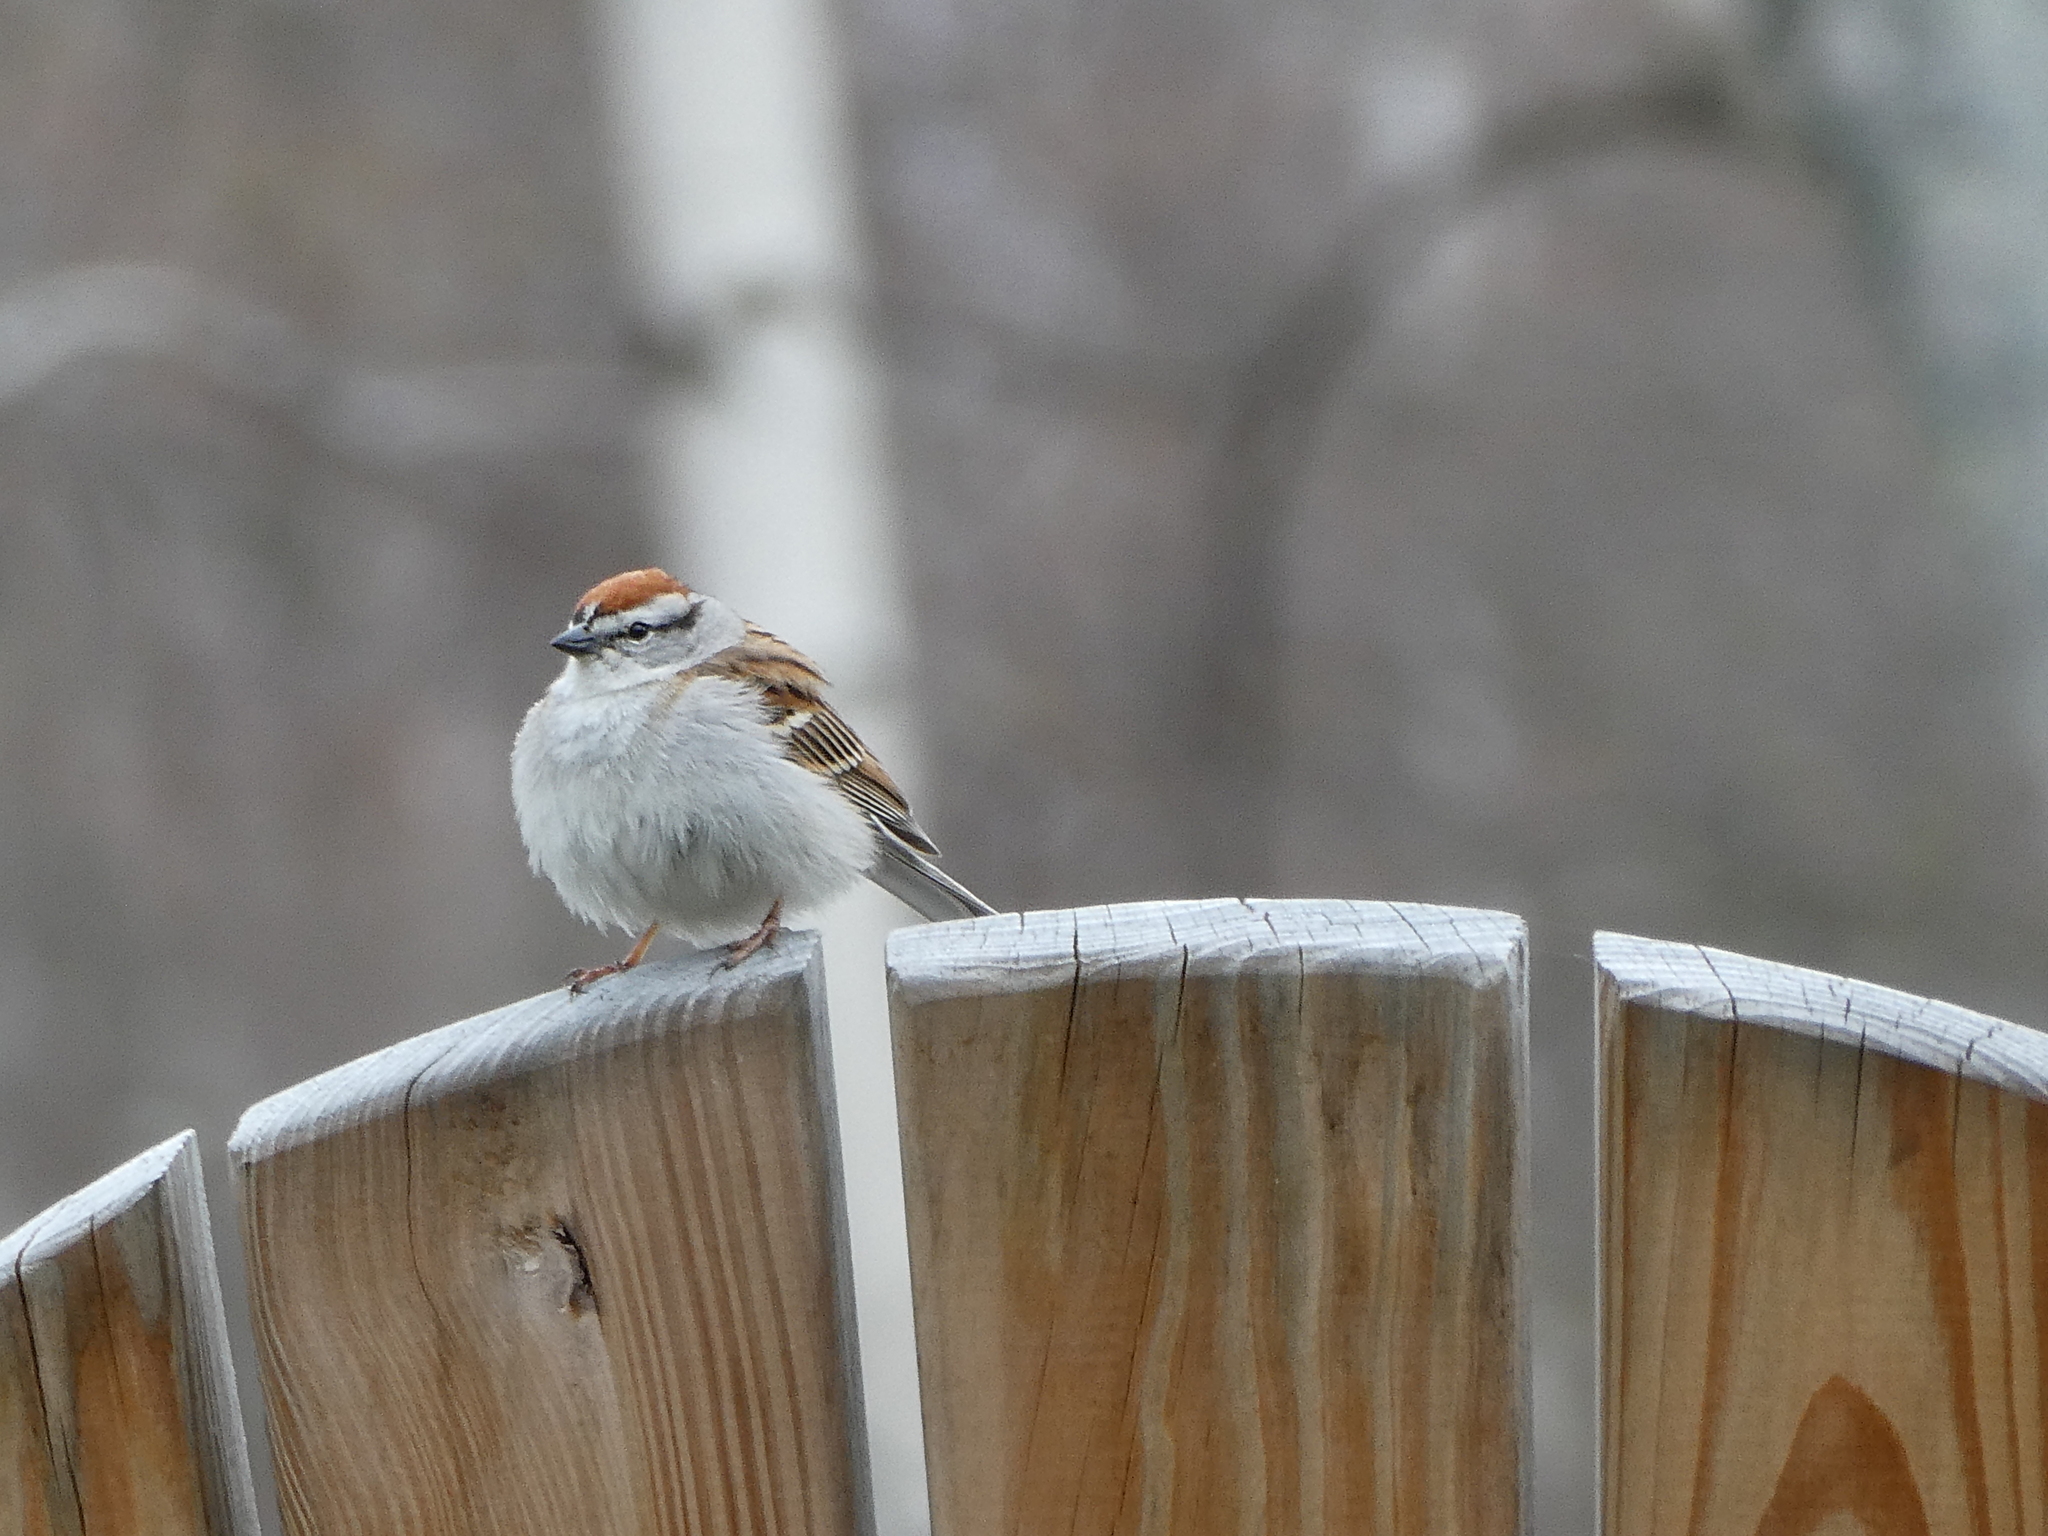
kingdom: Animalia
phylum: Chordata
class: Aves
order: Passeriformes
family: Passerellidae
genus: Spizella
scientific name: Spizella passerina
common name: Chipping sparrow
